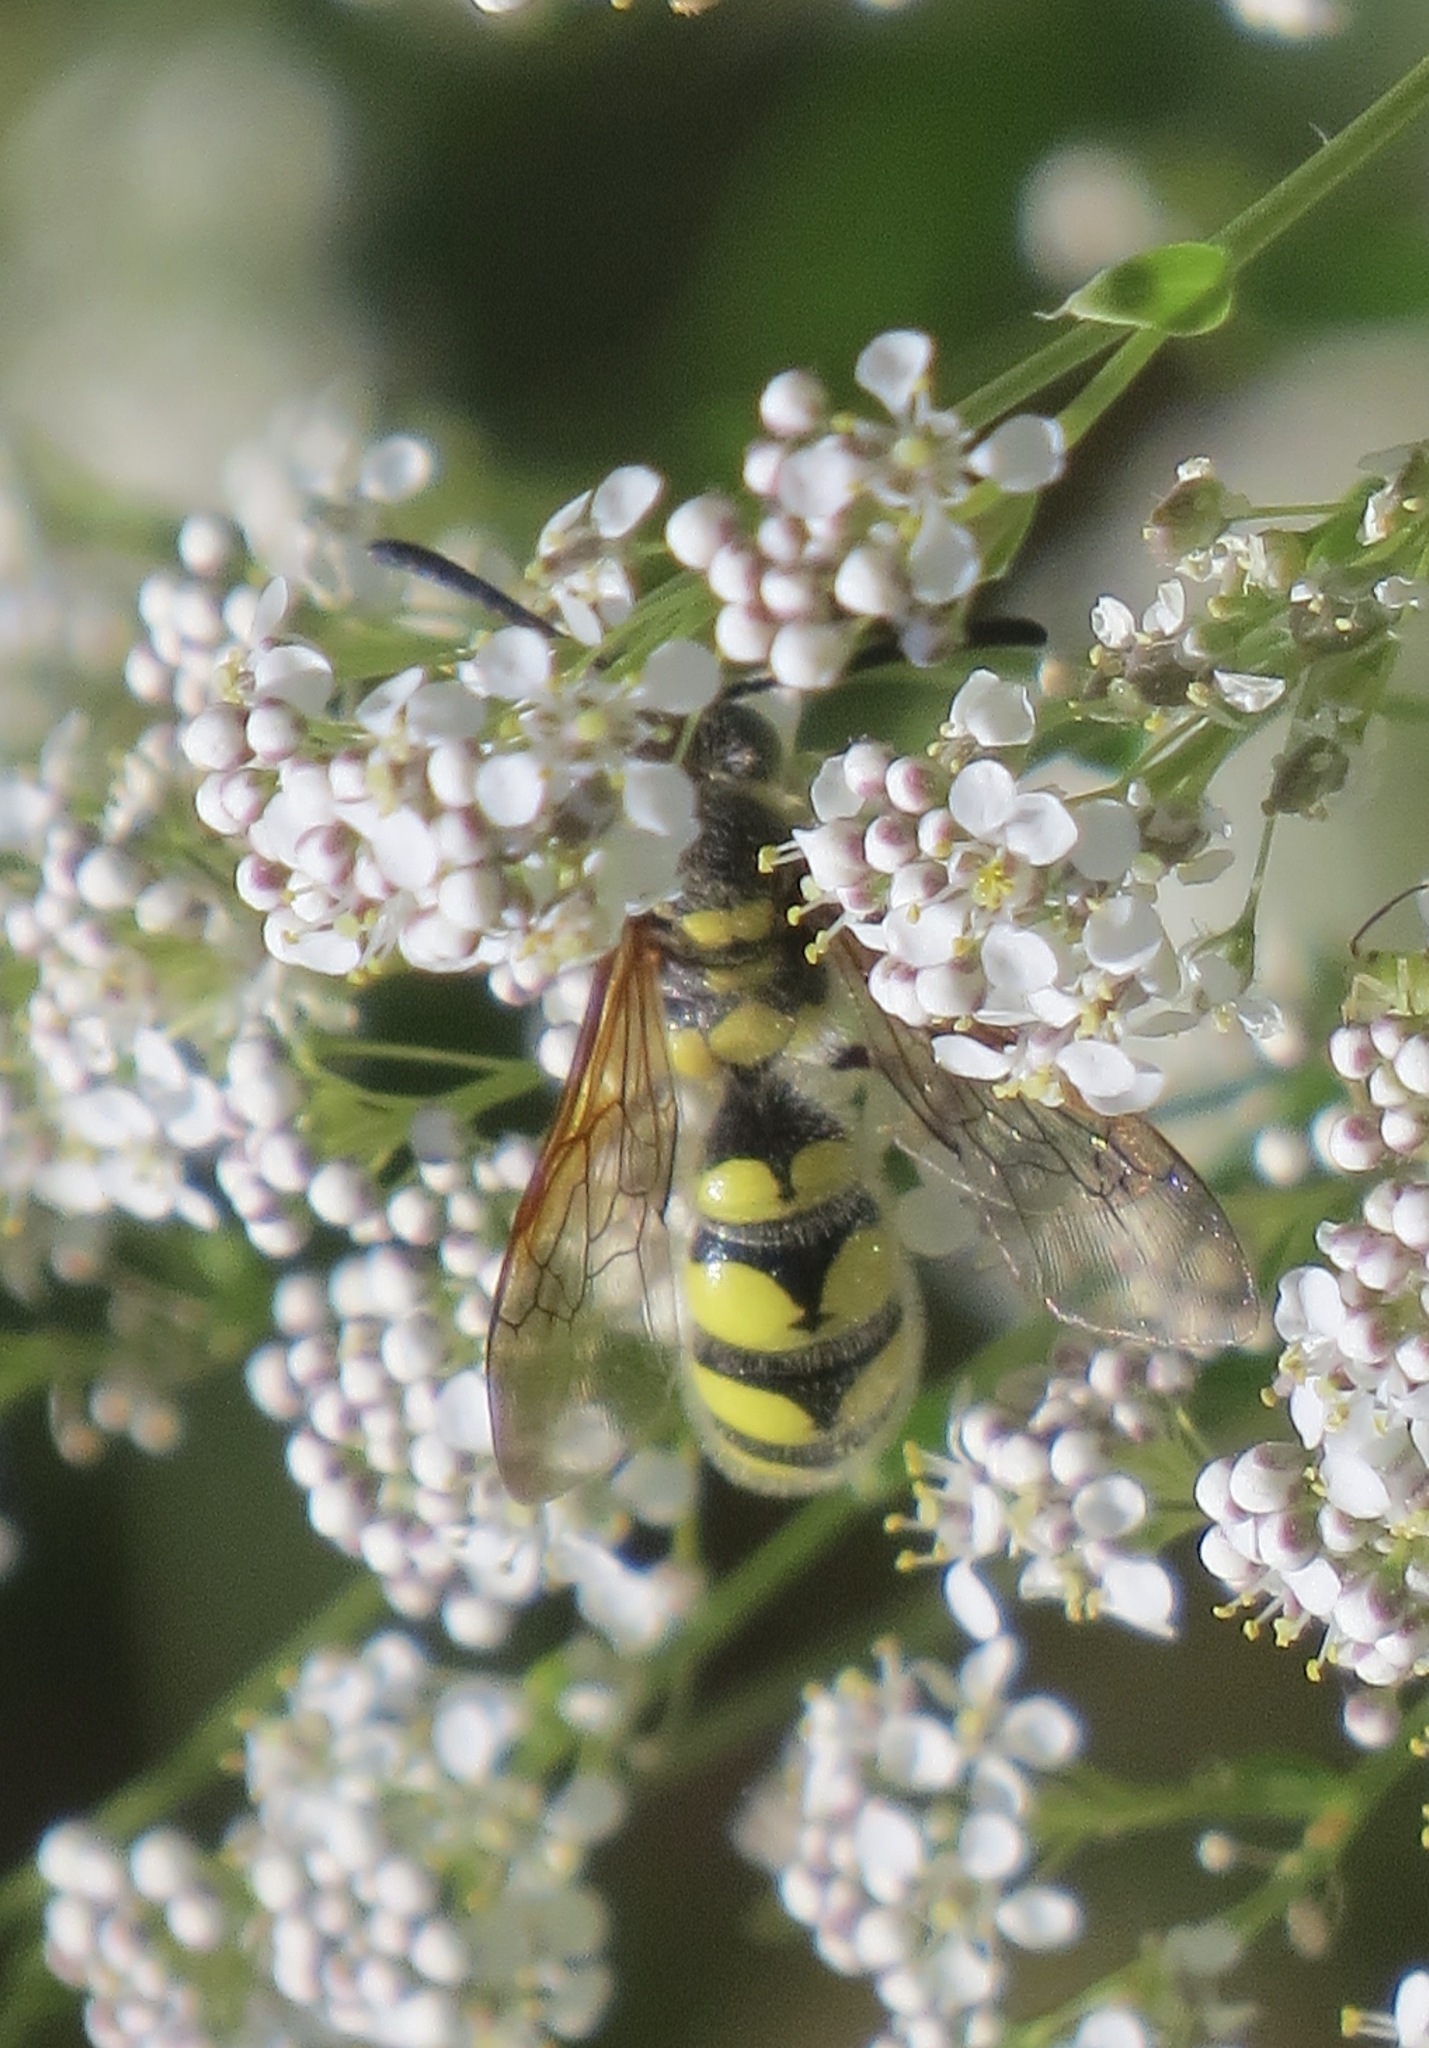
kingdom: Animalia
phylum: Arthropoda
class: Insecta
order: Hymenoptera
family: Sphecidae
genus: Crioscolia
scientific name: Crioscolia
